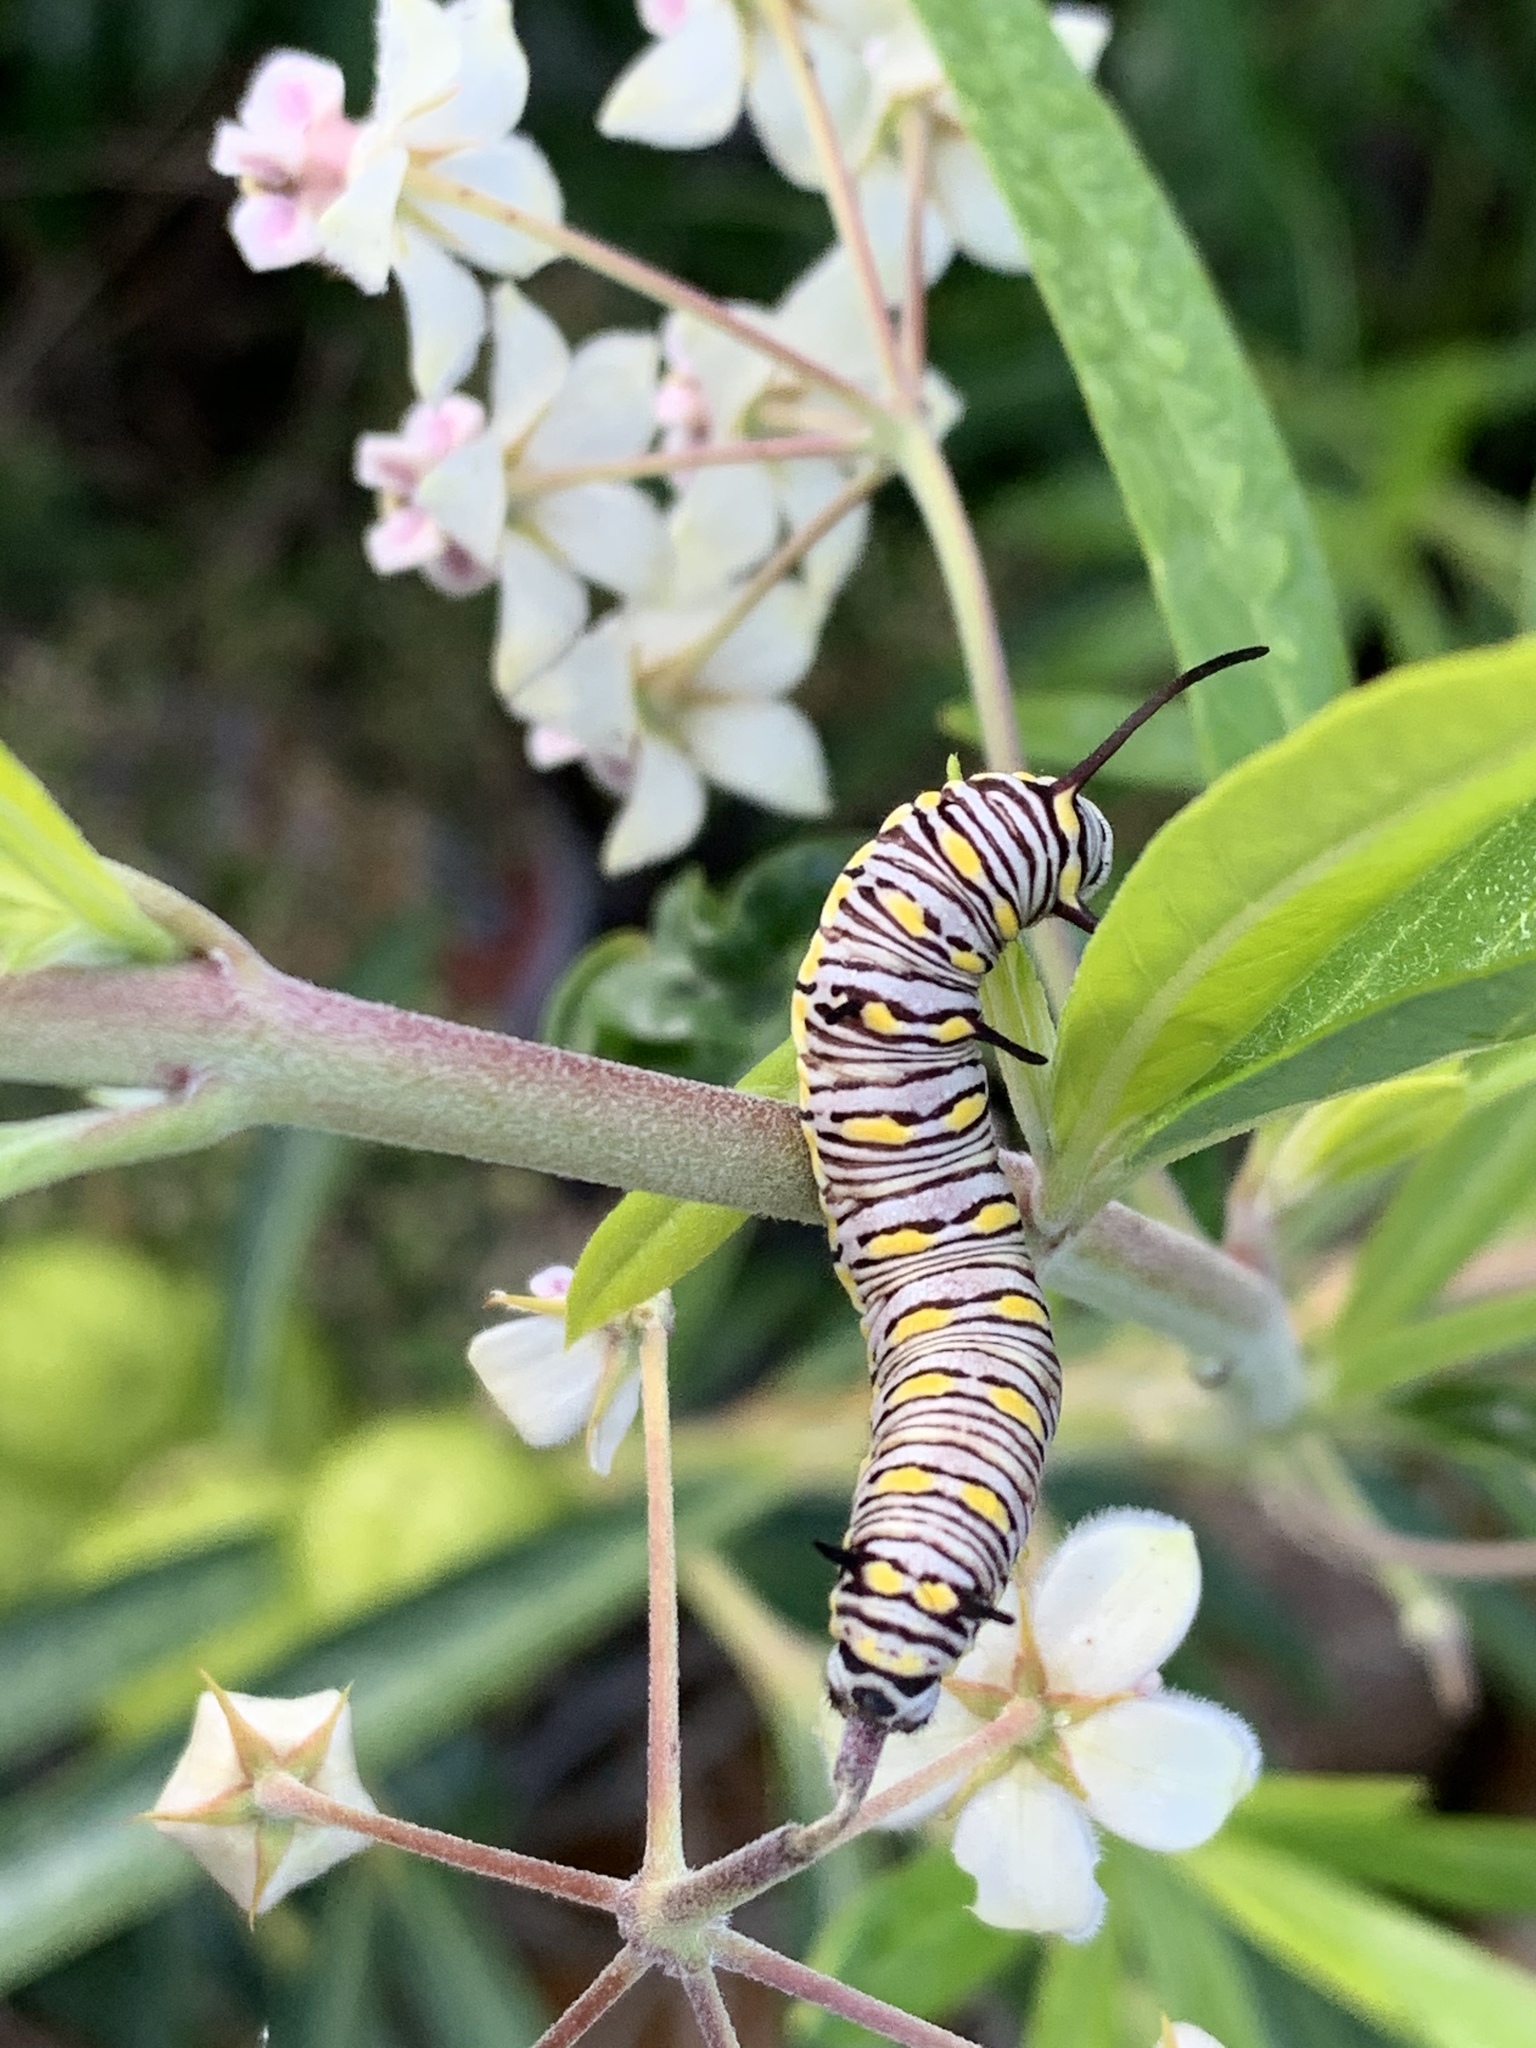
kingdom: Animalia
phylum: Arthropoda
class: Insecta
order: Lepidoptera
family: Nymphalidae
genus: Danaus
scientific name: Danaus chrysippus
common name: Plain tiger
